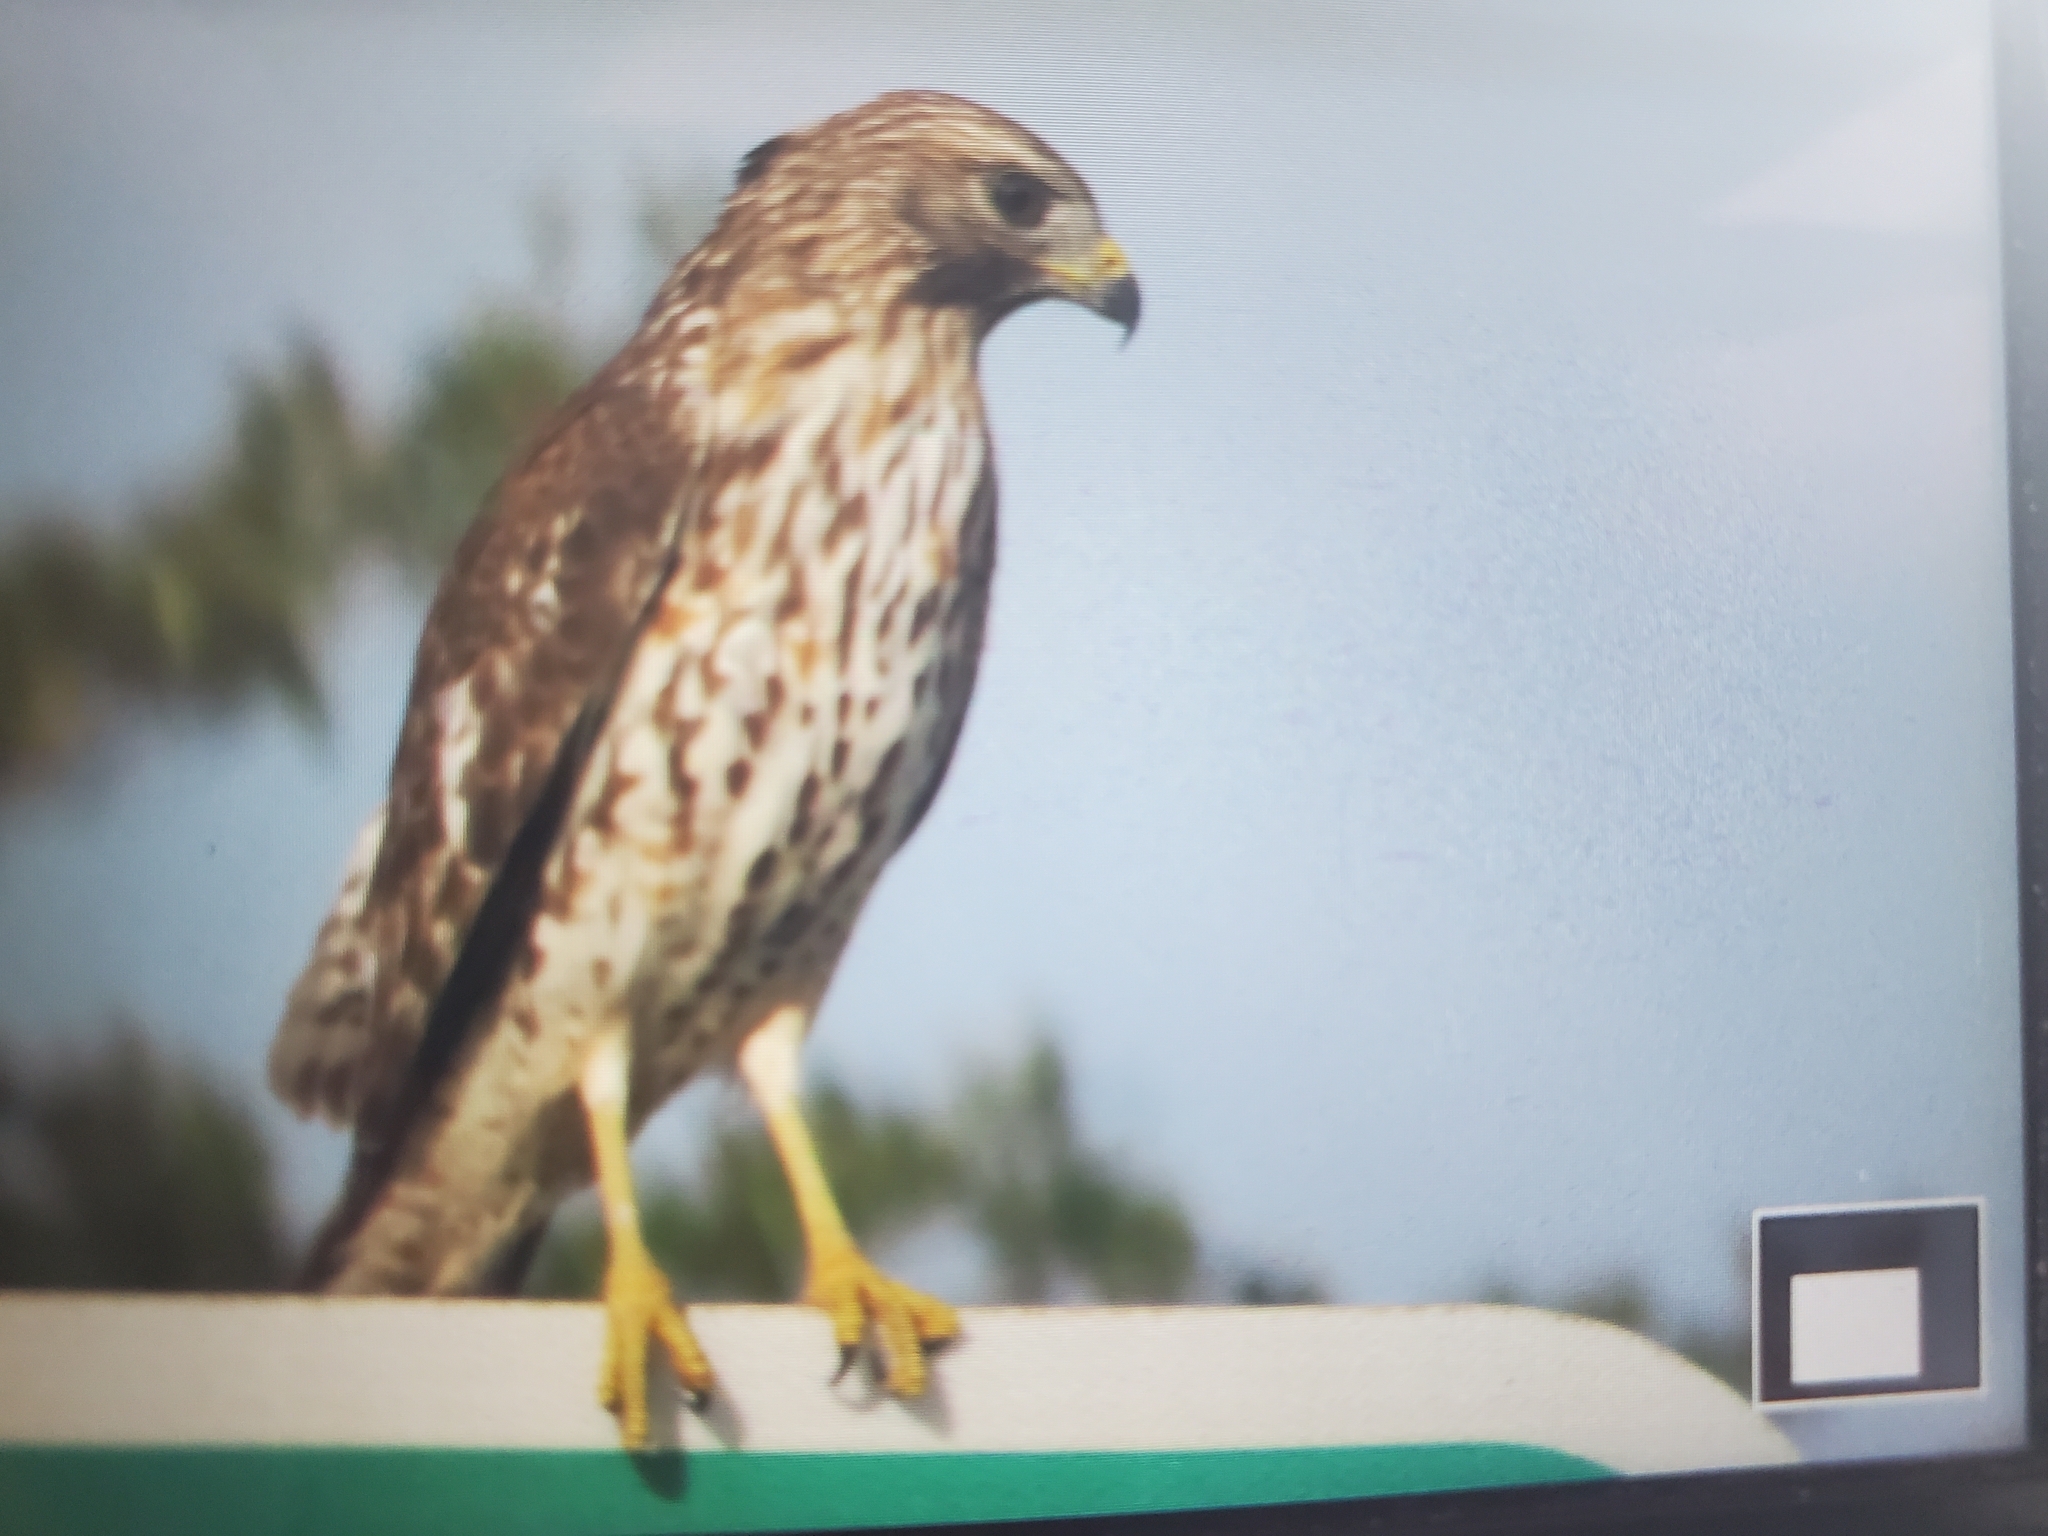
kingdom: Animalia
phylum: Chordata
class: Aves
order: Accipitriformes
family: Accipitridae
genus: Buteo
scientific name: Buteo lineatus
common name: Red-shouldered hawk
